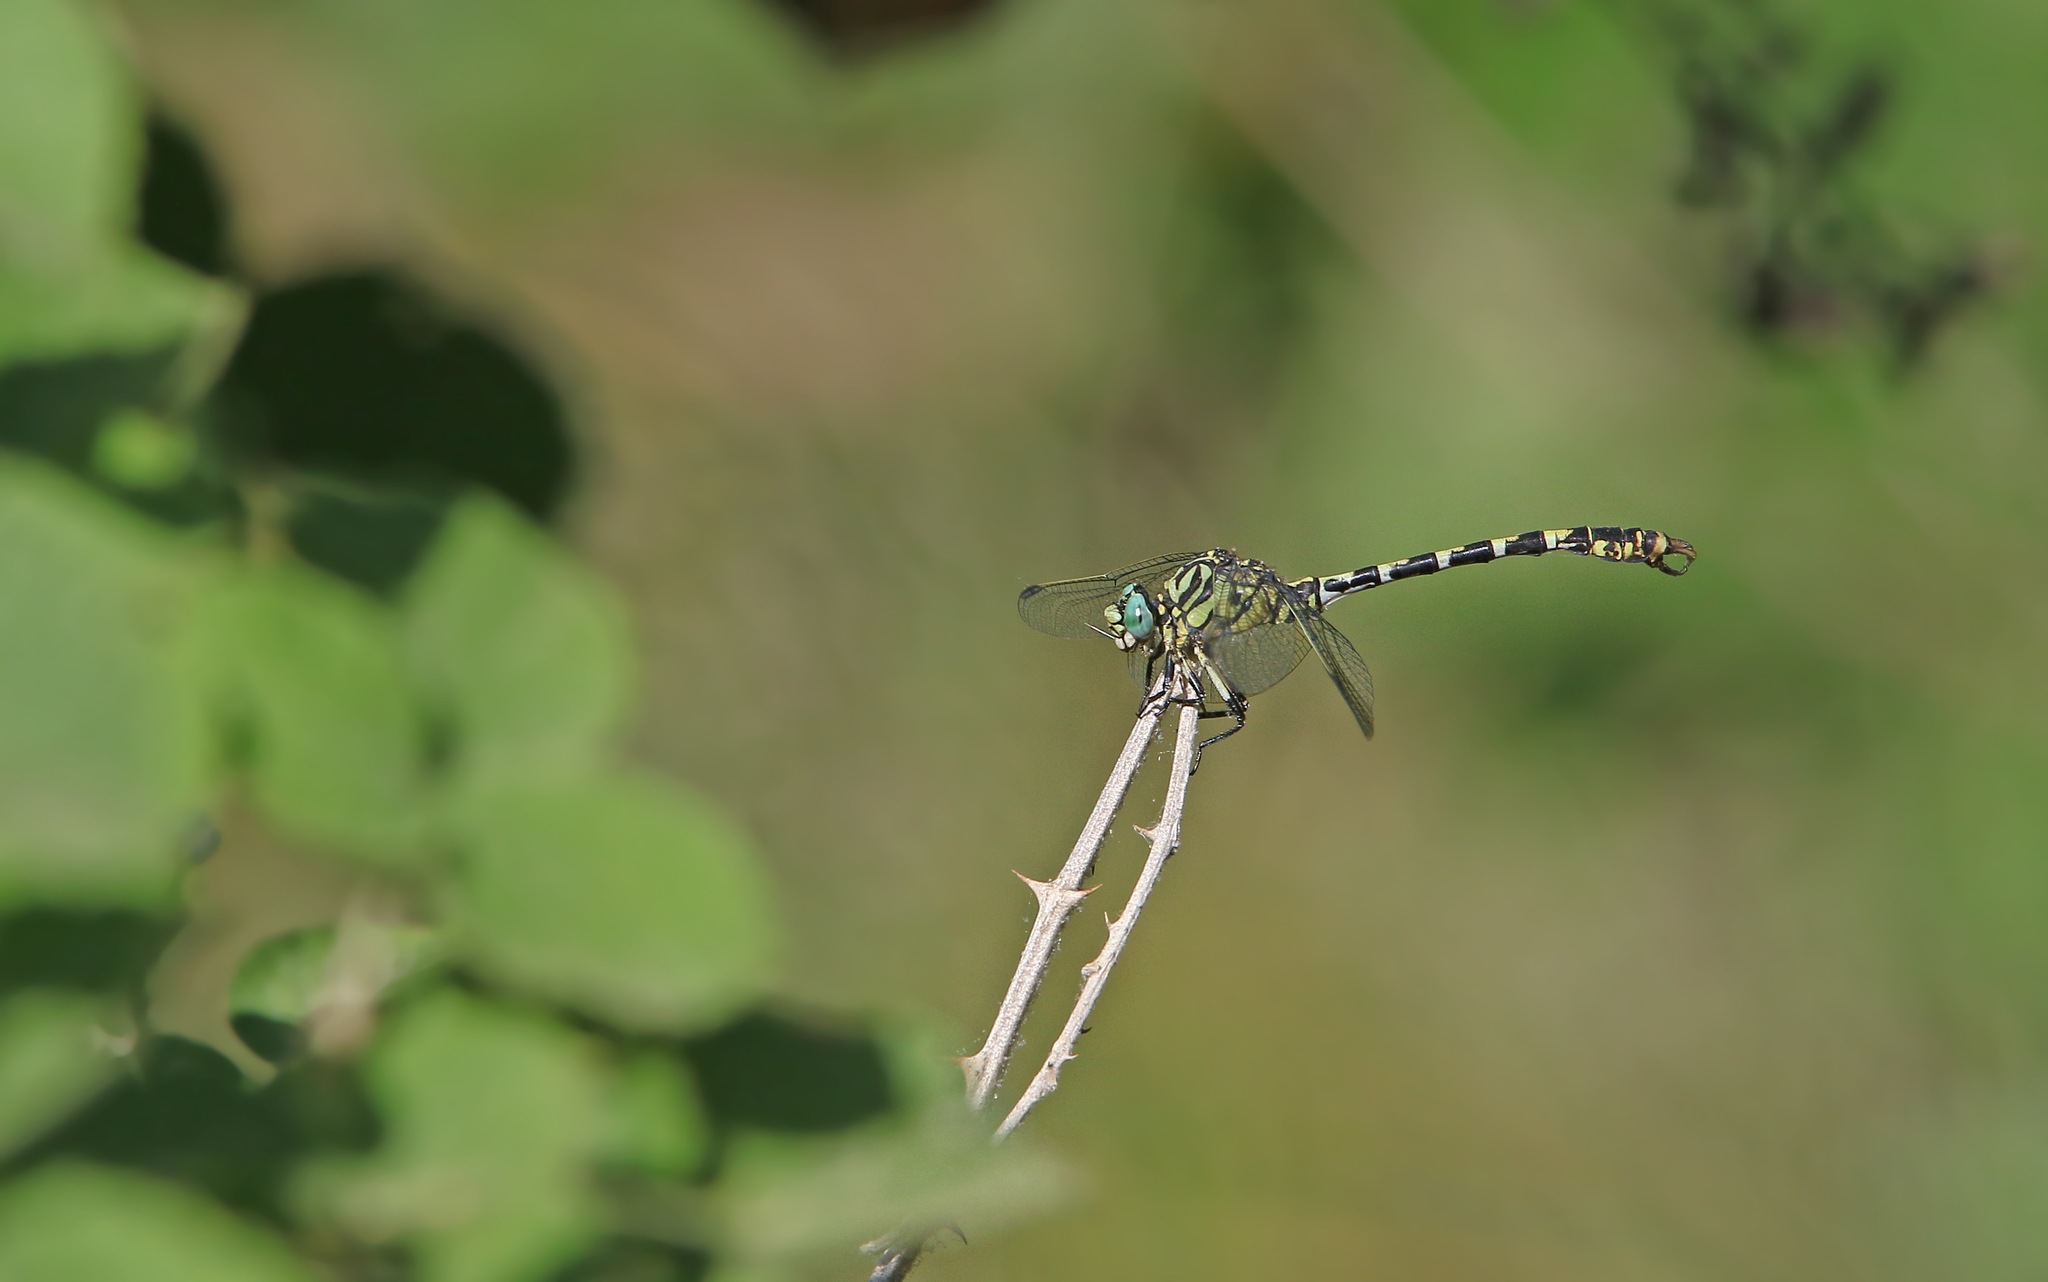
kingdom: Animalia
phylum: Arthropoda
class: Insecta
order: Odonata
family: Gomphidae
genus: Onychogomphus
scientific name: Onychogomphus forcipatus
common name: Small pincertail
